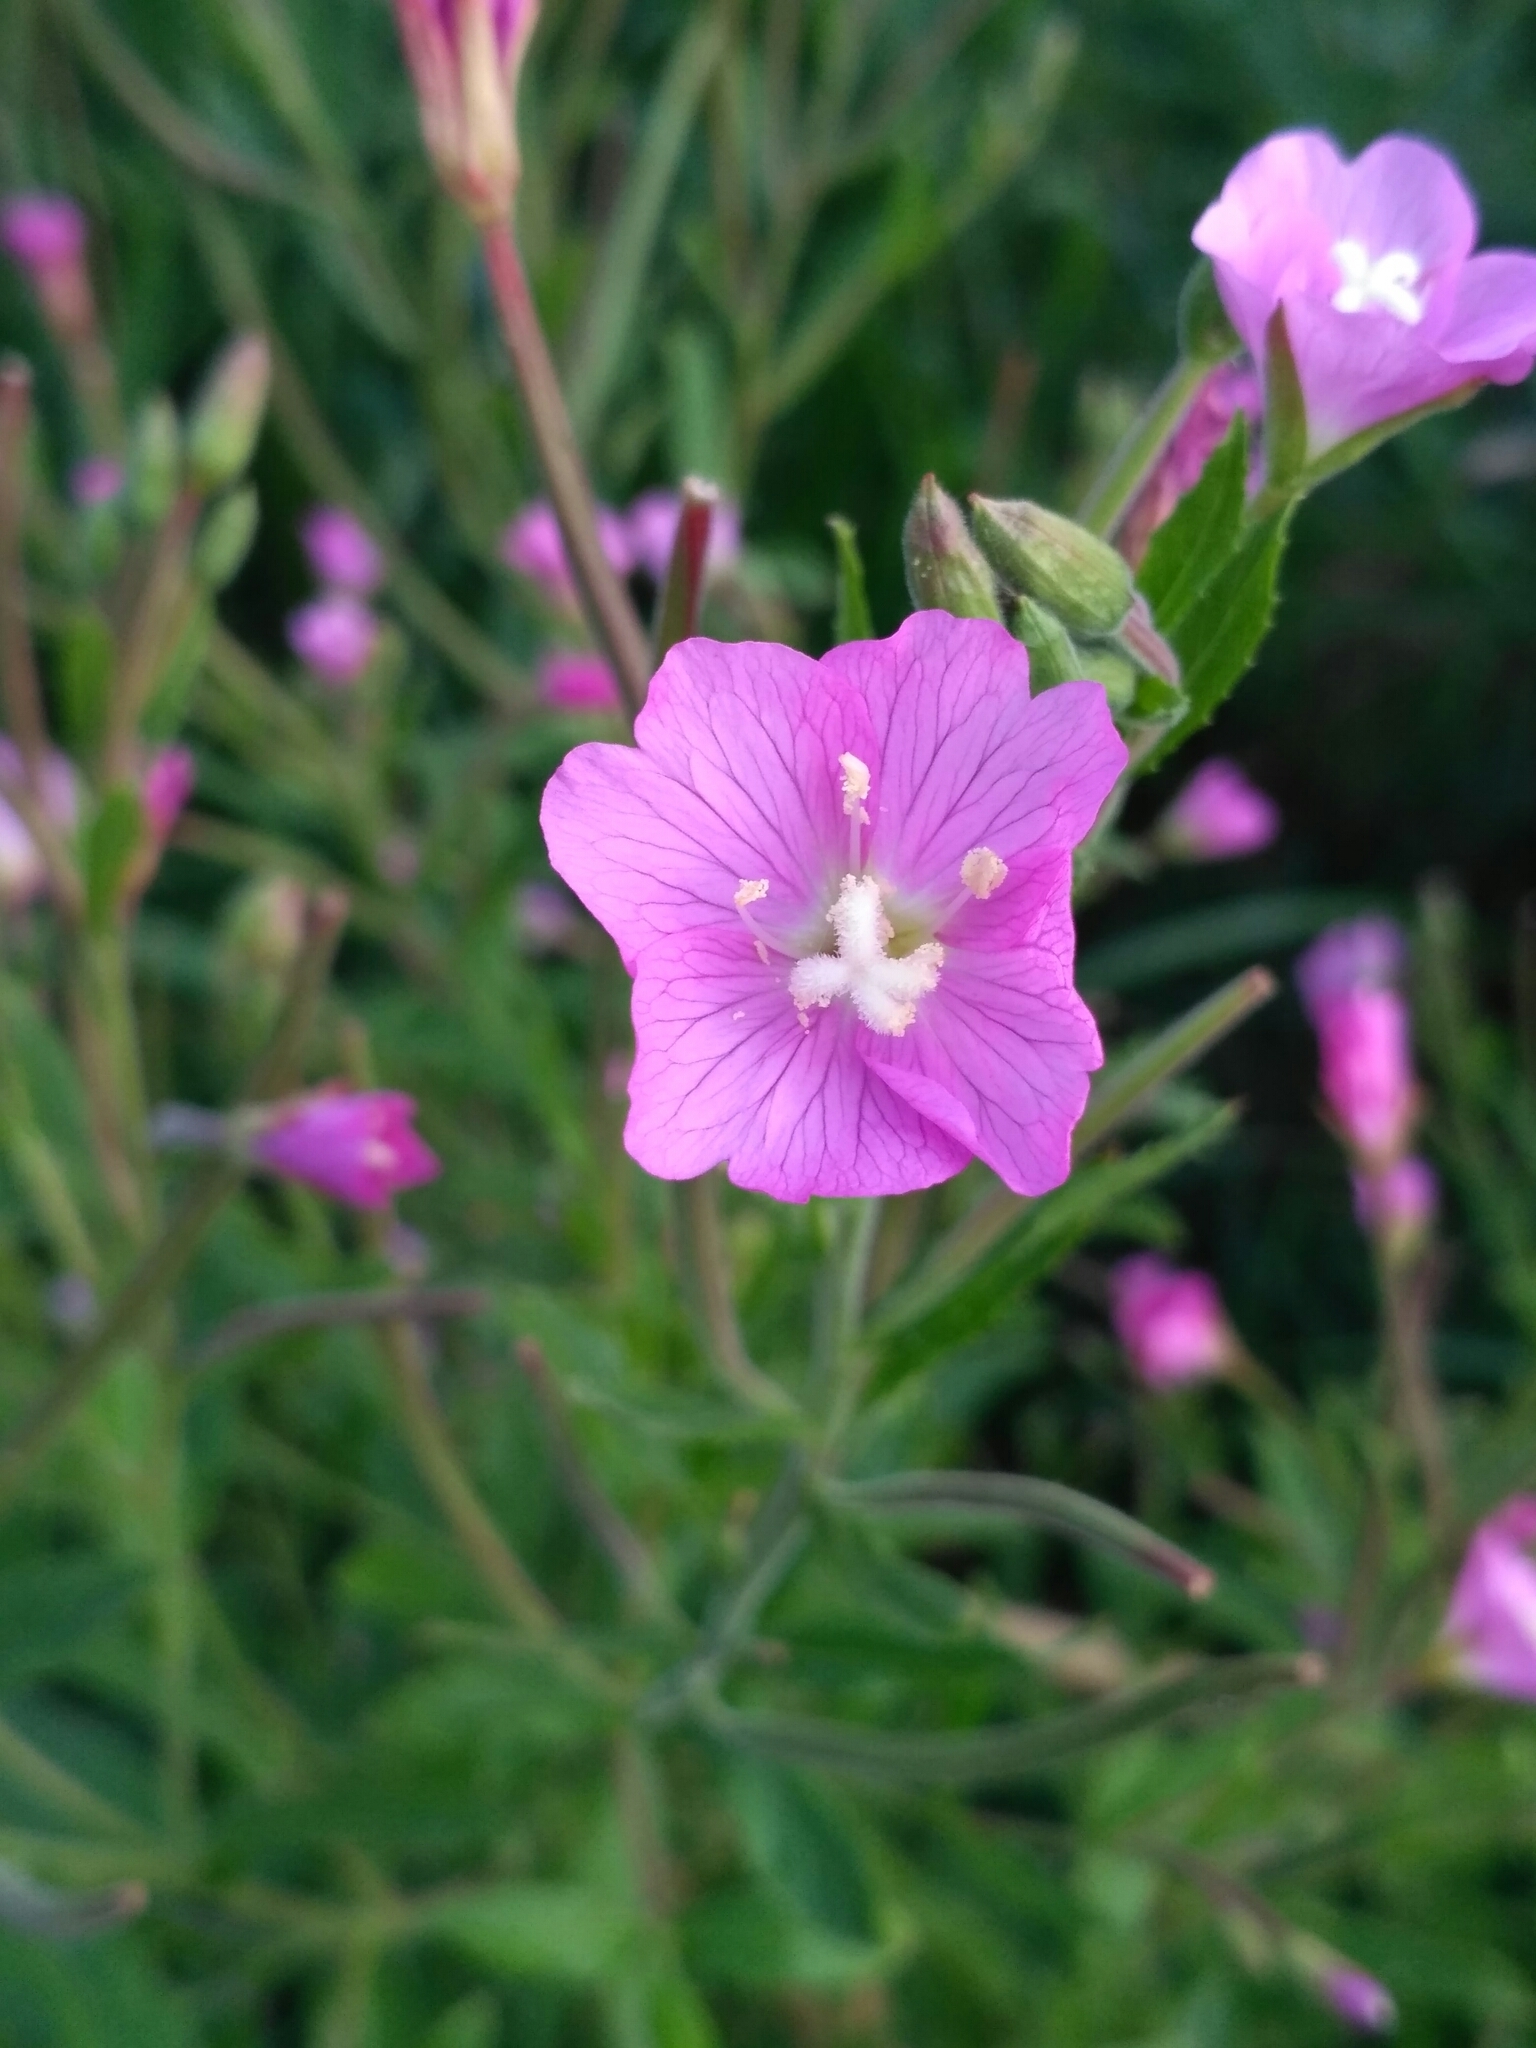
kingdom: Plantae
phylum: Tracheophyta
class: Magnoliopsida
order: Myrtales
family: Onagraceae
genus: Epilobium
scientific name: Epilobium hirsutum
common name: Great willowherb
